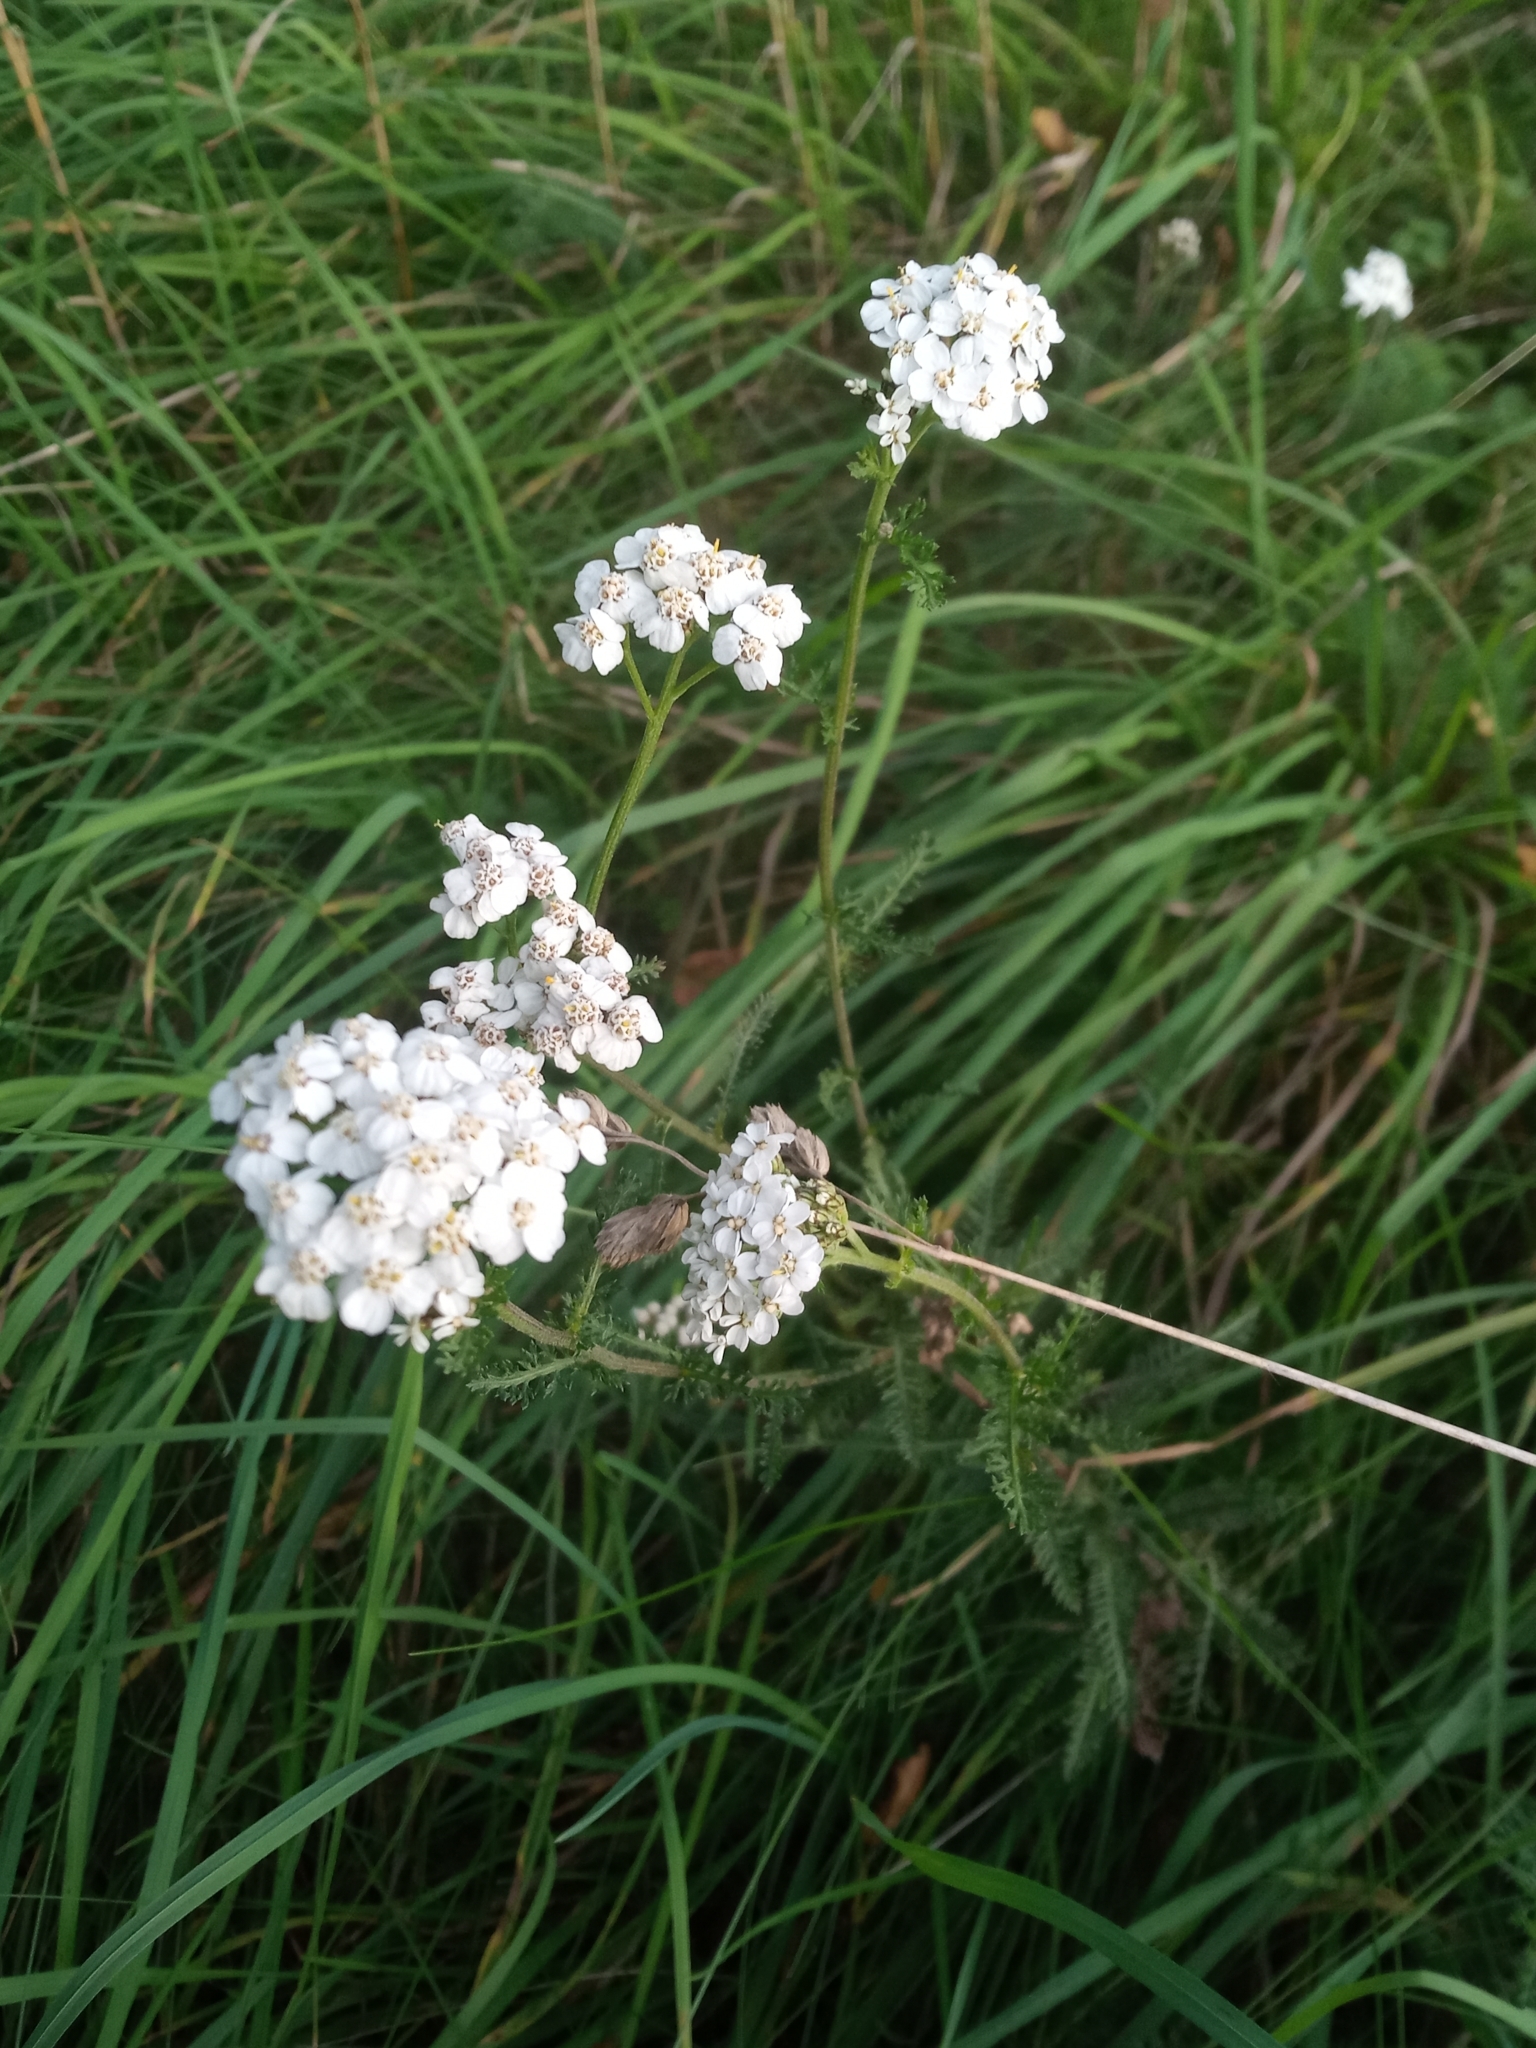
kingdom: Plantae
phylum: Tracheophyta
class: Magnoliopsida
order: Asterales
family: Asteraceae
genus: Achillea
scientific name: Achillea millefolium
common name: Yarrow
